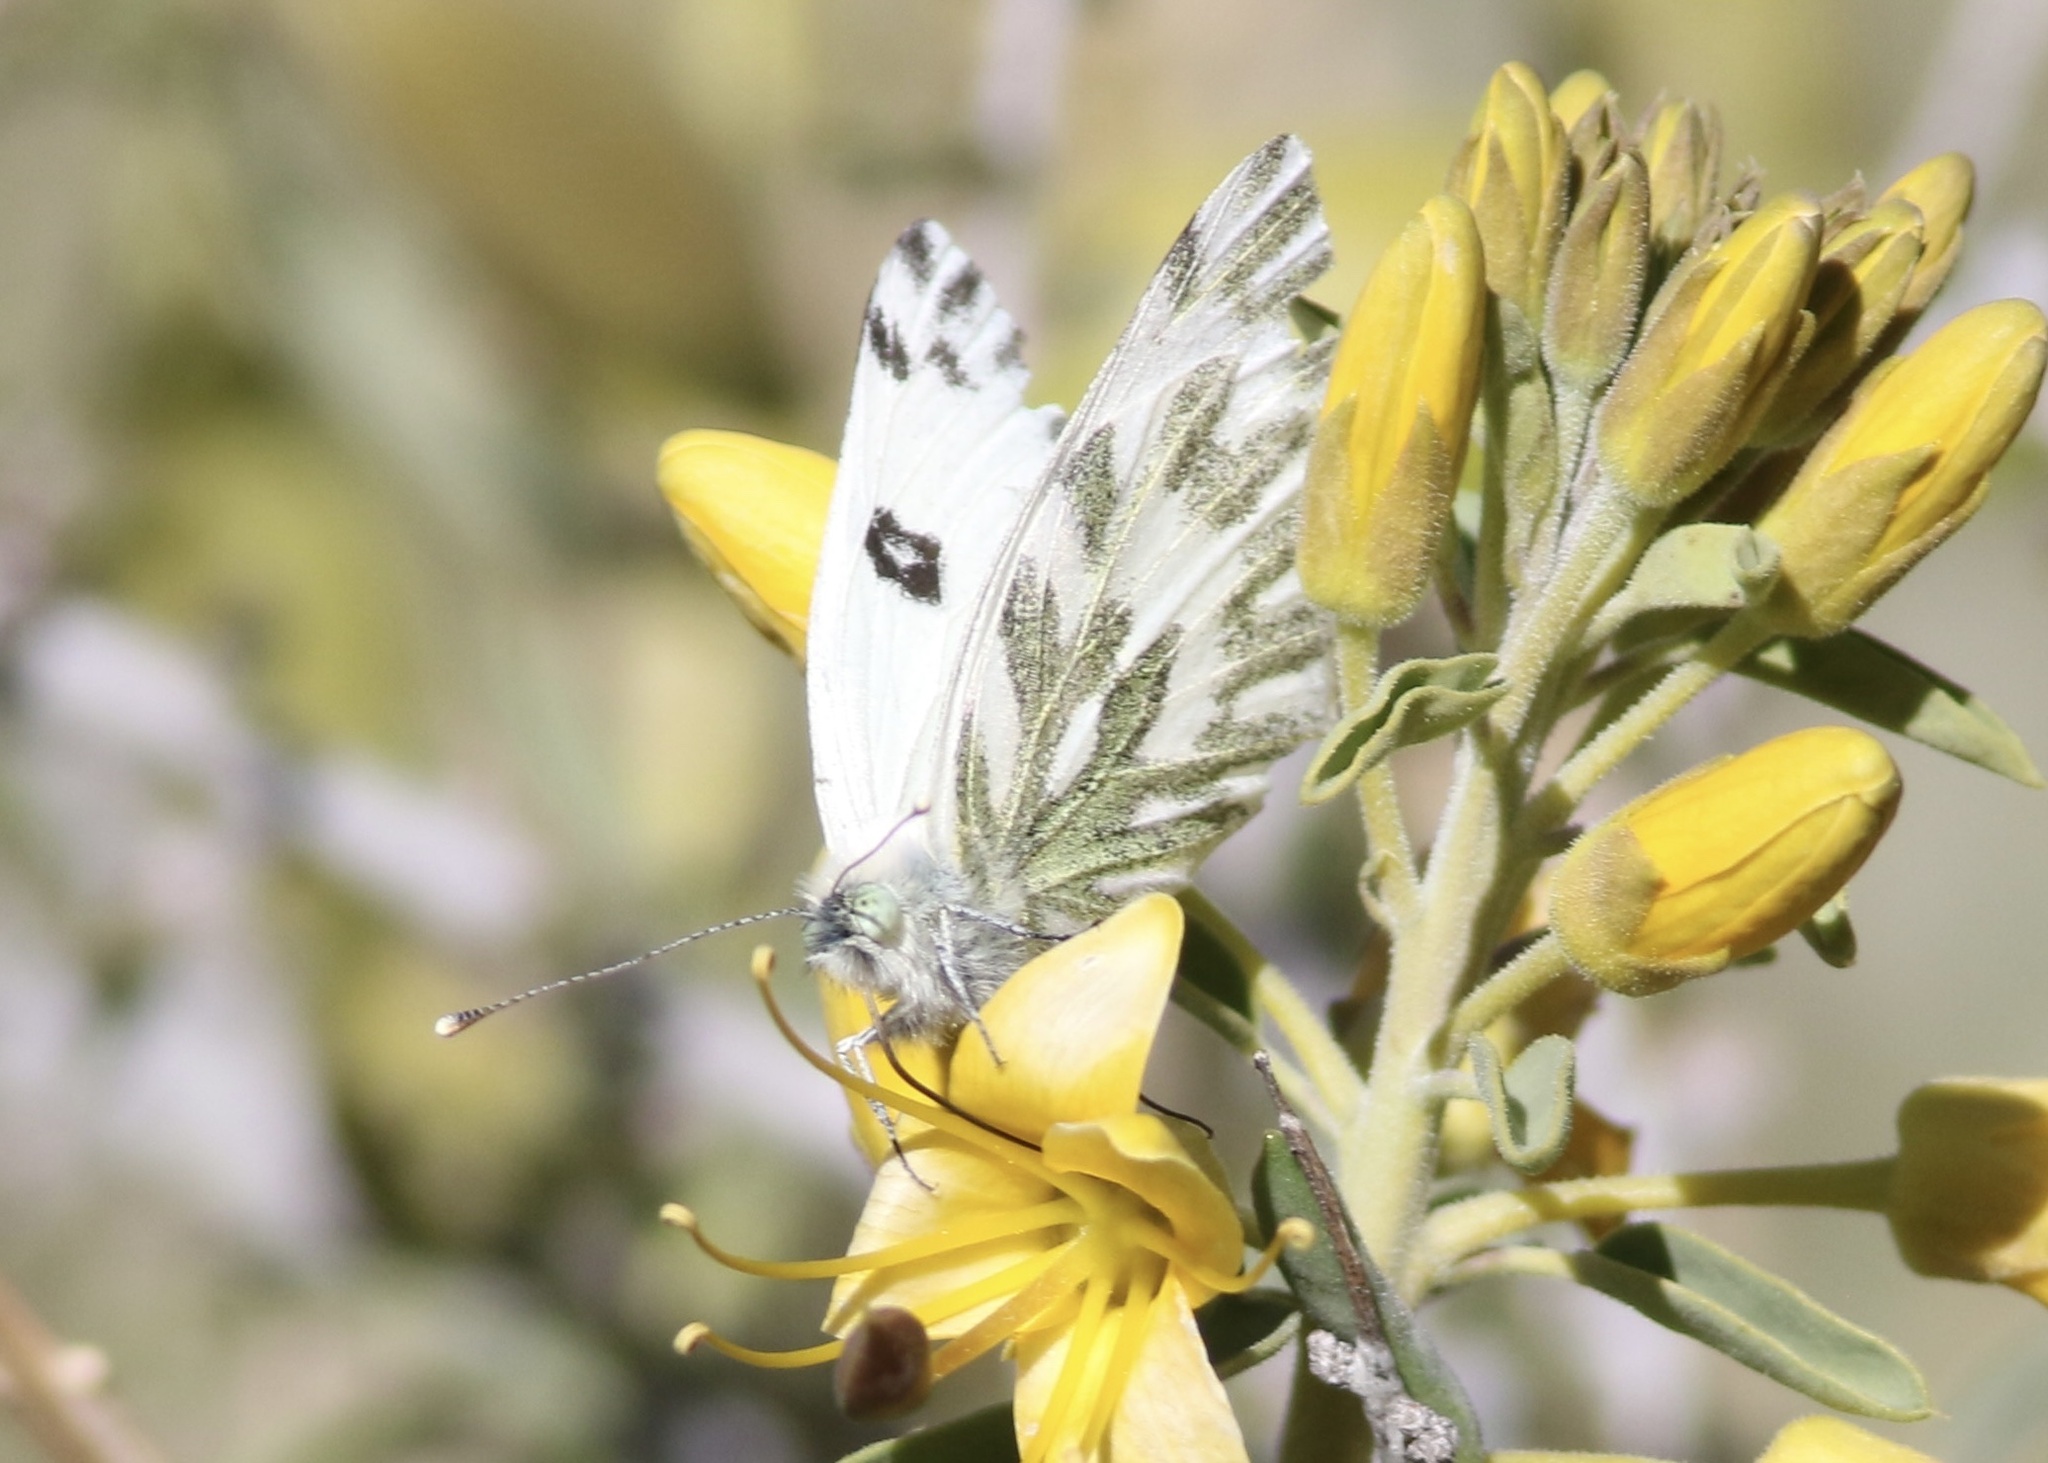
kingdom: Animalia
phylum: Arthropoda
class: Insecta
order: Lepidoptera
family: Pieridae
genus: Pontia
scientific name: Pontia beckerii
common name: Becker's white
